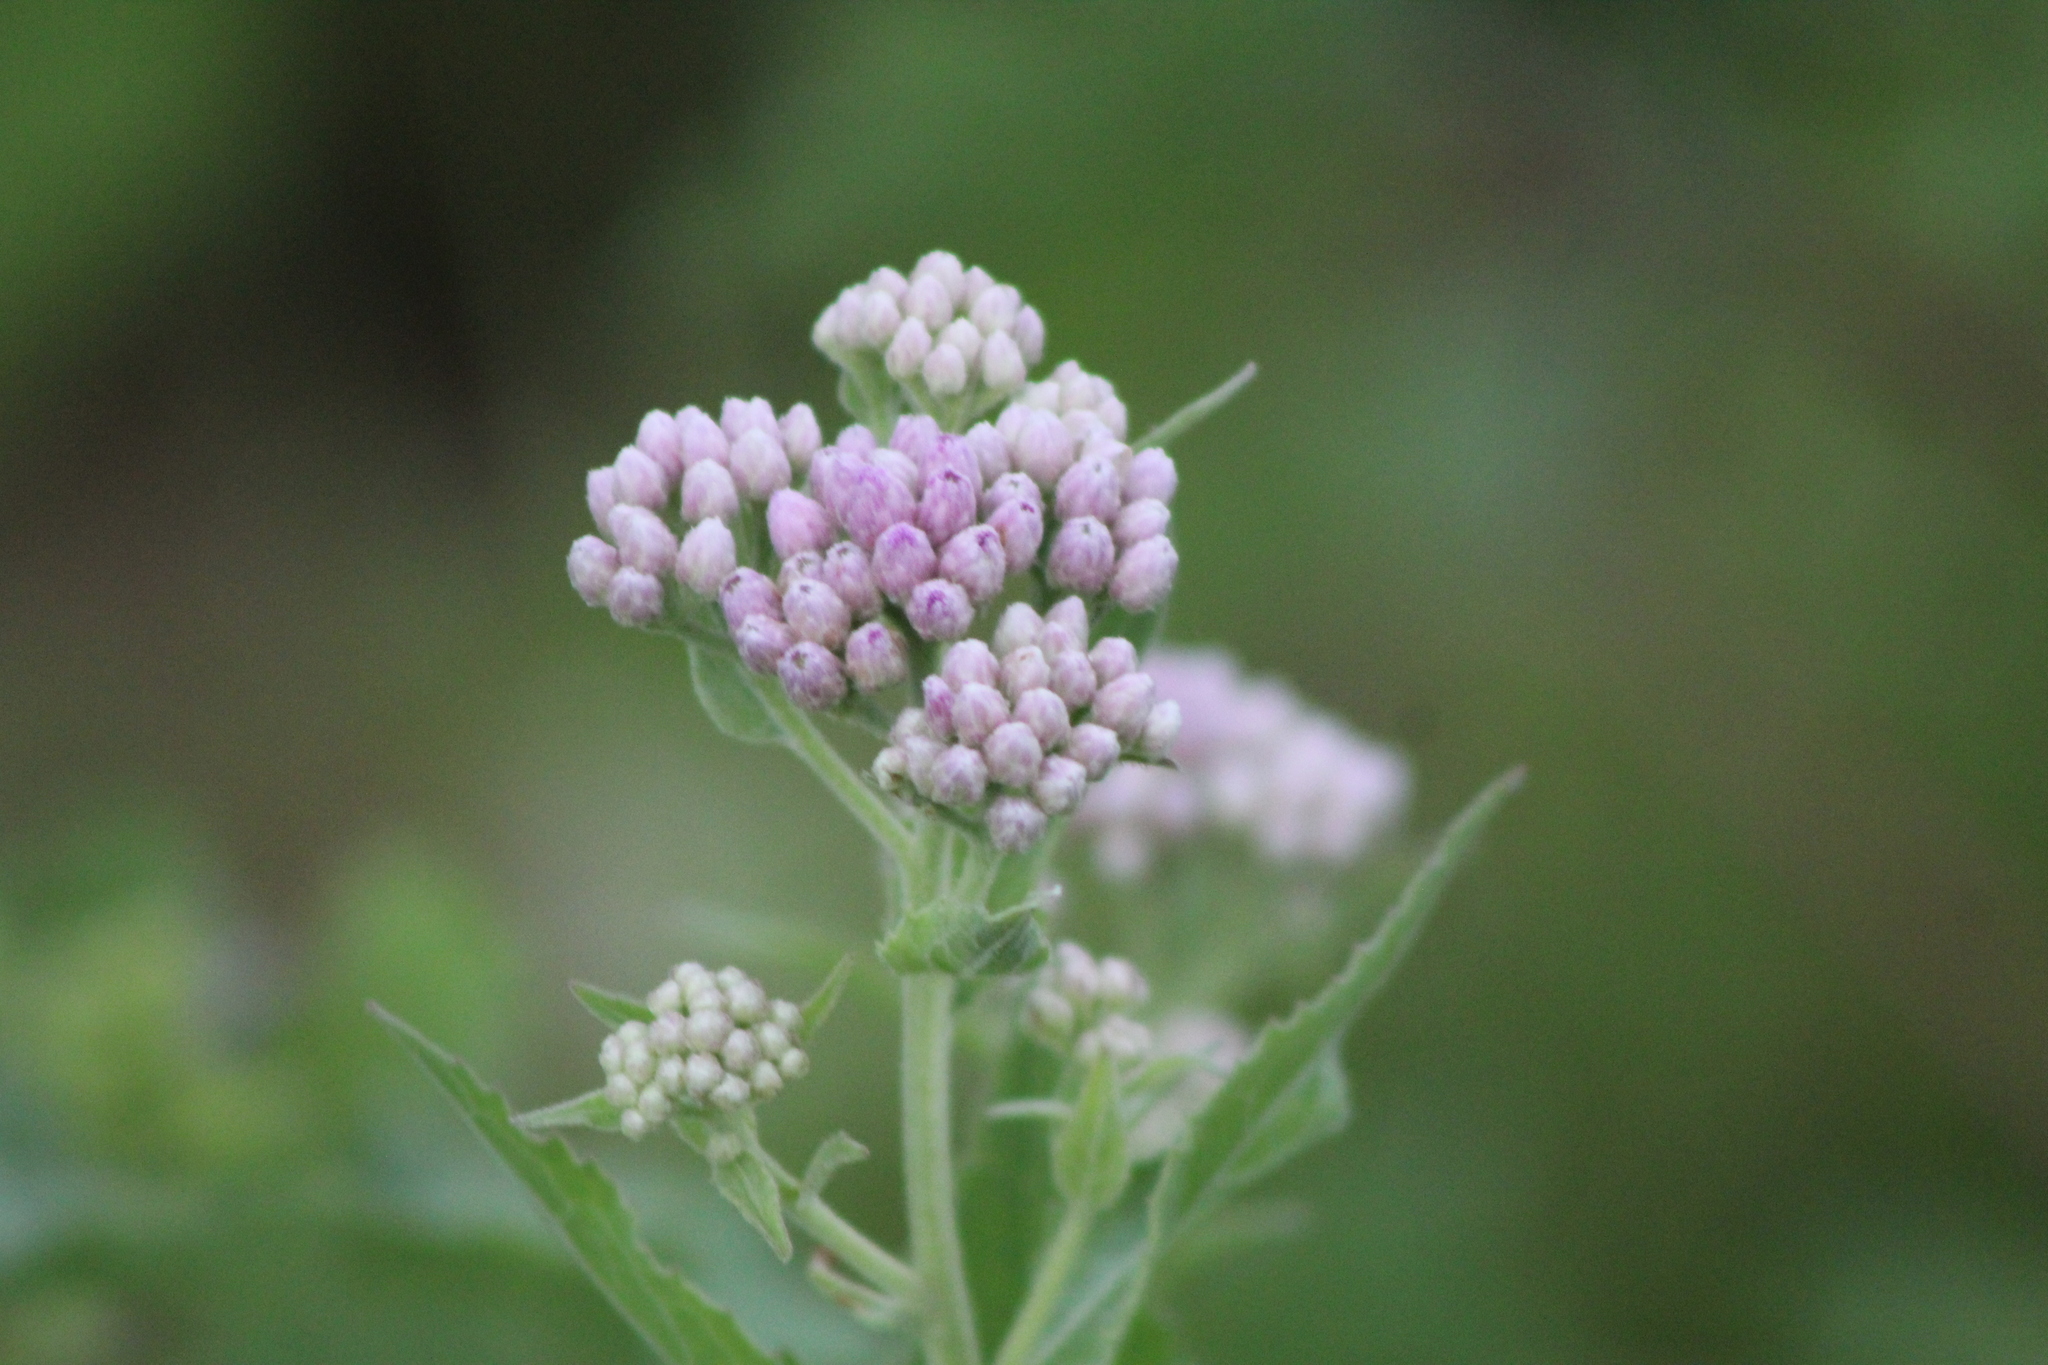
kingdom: Plantae
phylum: Tracheophyta
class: Magnoliopsida
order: Asterales
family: Asteraceae
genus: Pluchea
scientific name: Pluchea odorata
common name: Saltmarsh fleabane
